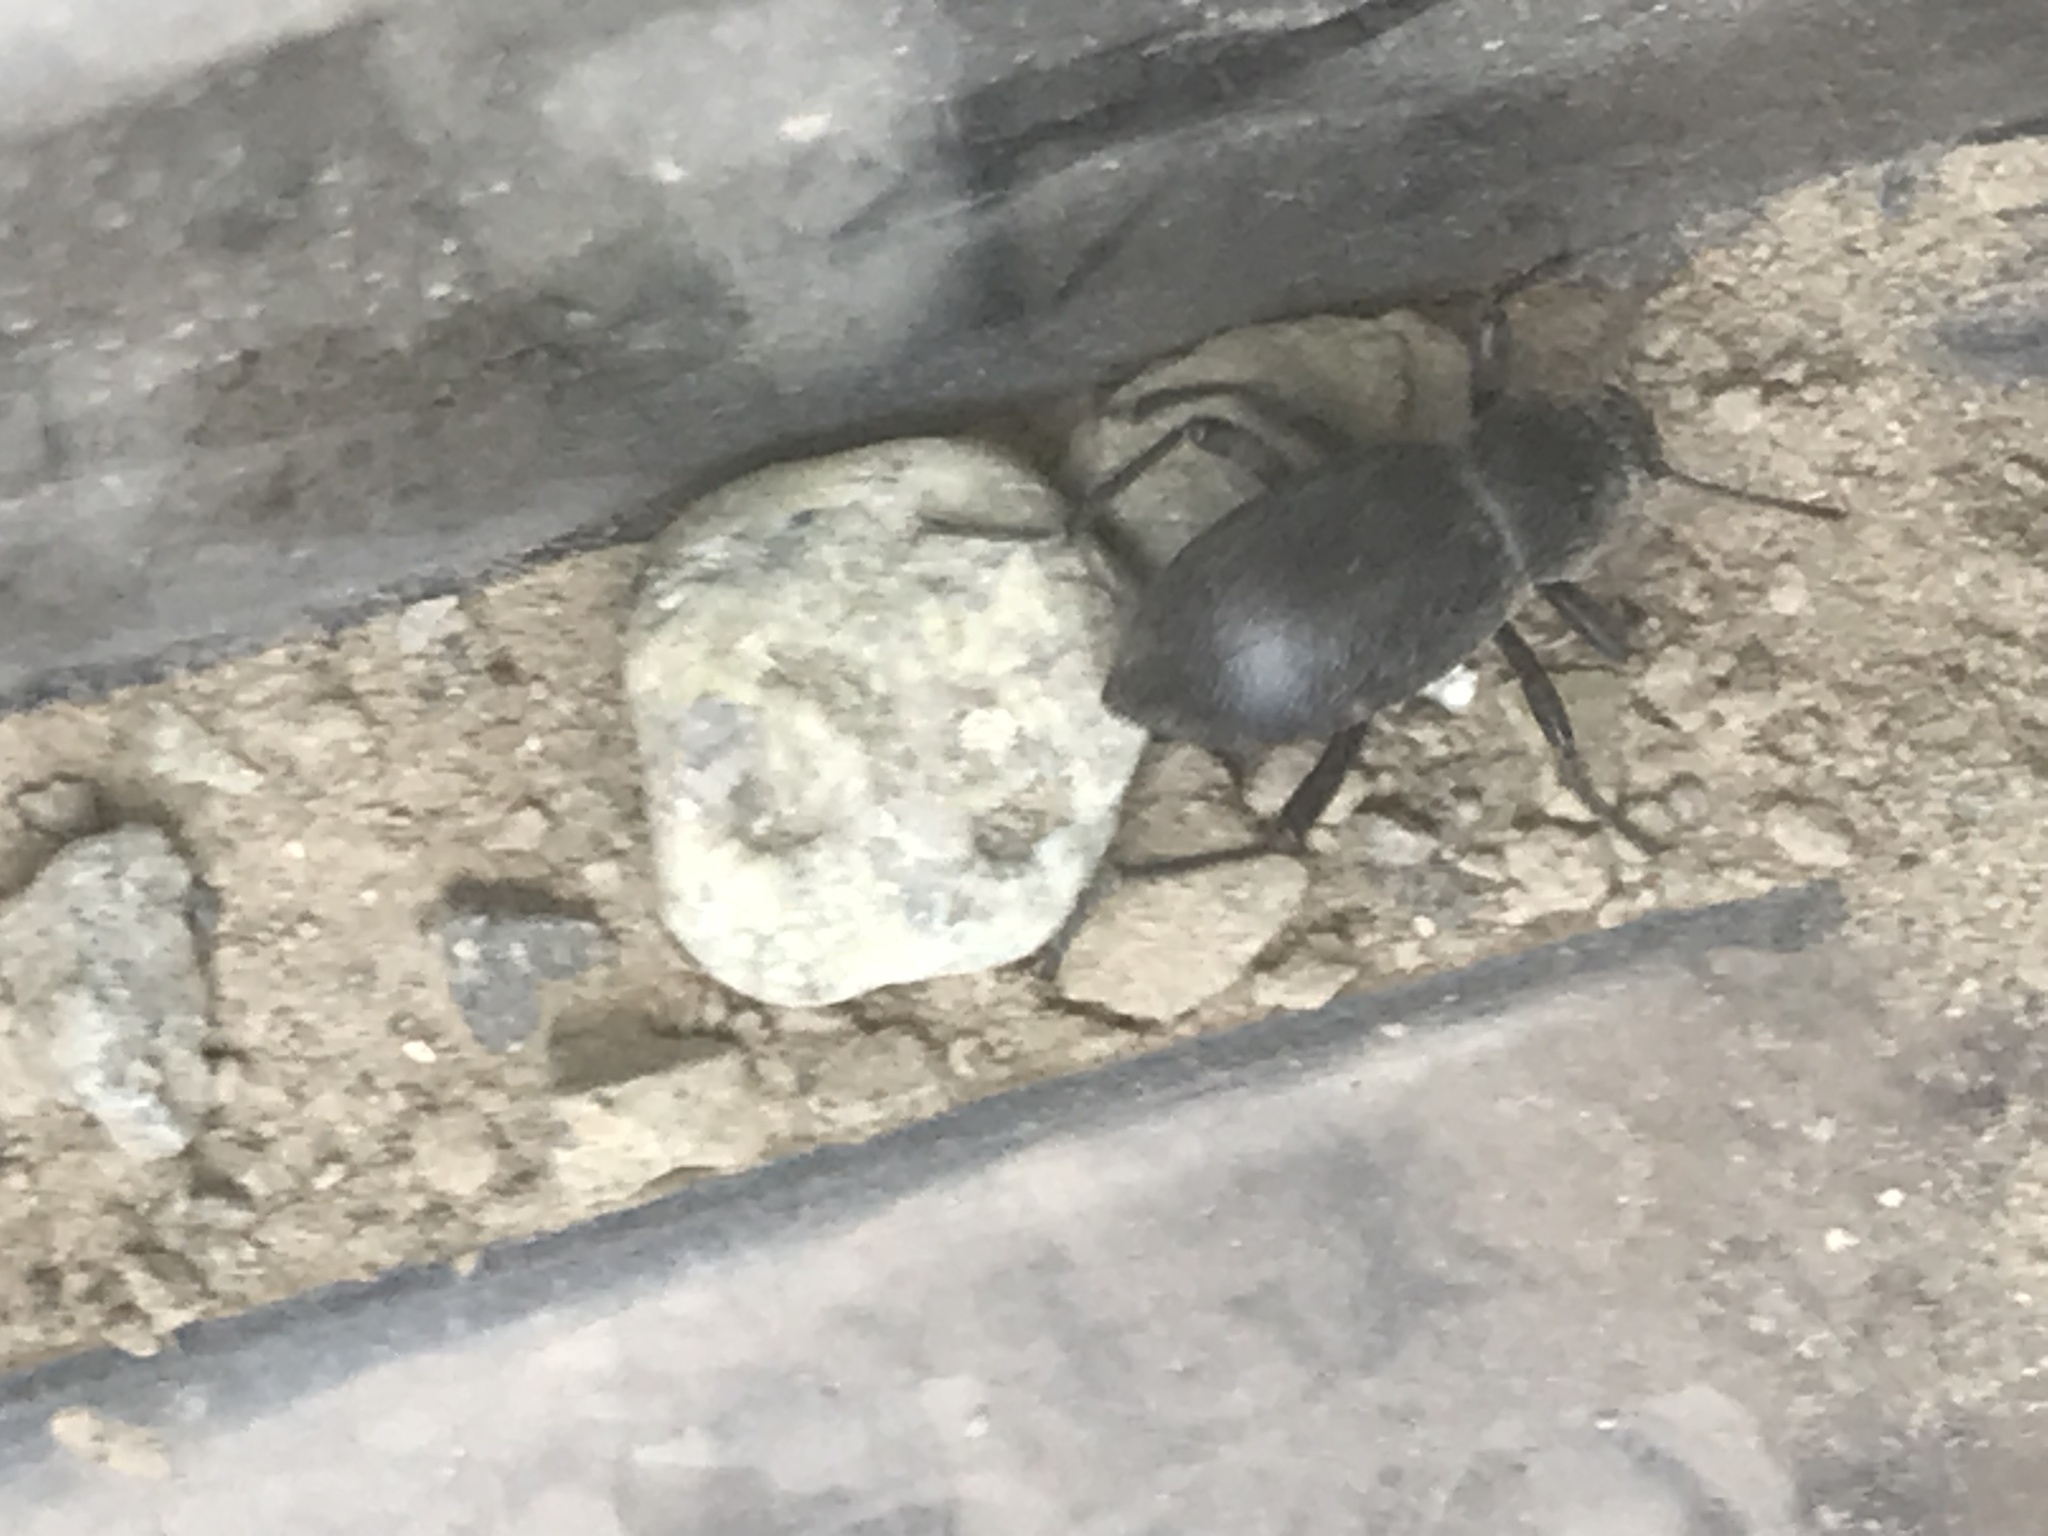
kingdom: Animalia
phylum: Arthropoda
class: Insecta
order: Coleoptera
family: Tenebrionidae
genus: Eleodes
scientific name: Eleodes granulata
